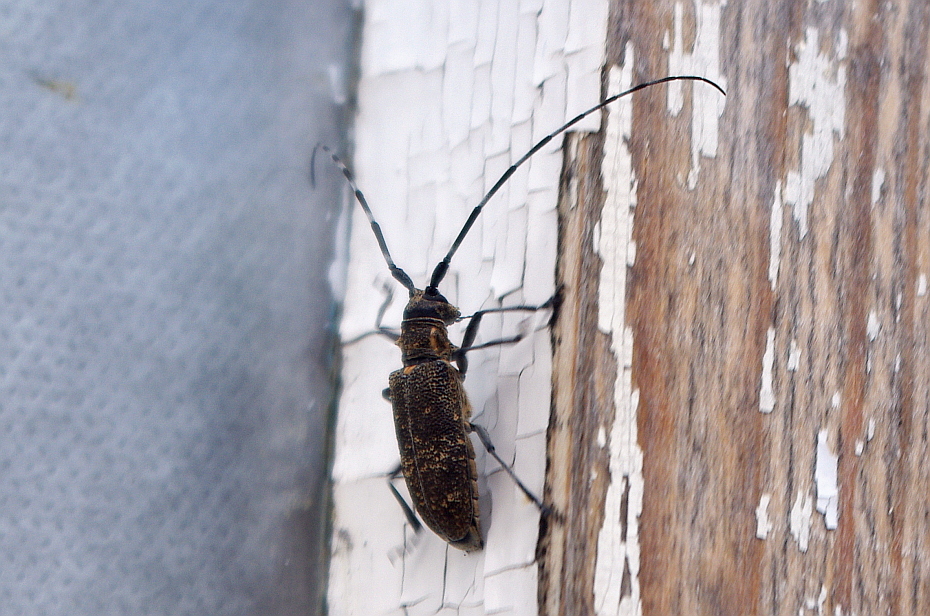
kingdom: Animalia
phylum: Arthropoda
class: Insecta
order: Coleoptera
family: Cerambycidae
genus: Monochamus
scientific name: Monochamus galloprovincialis
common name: Pine sawyer
